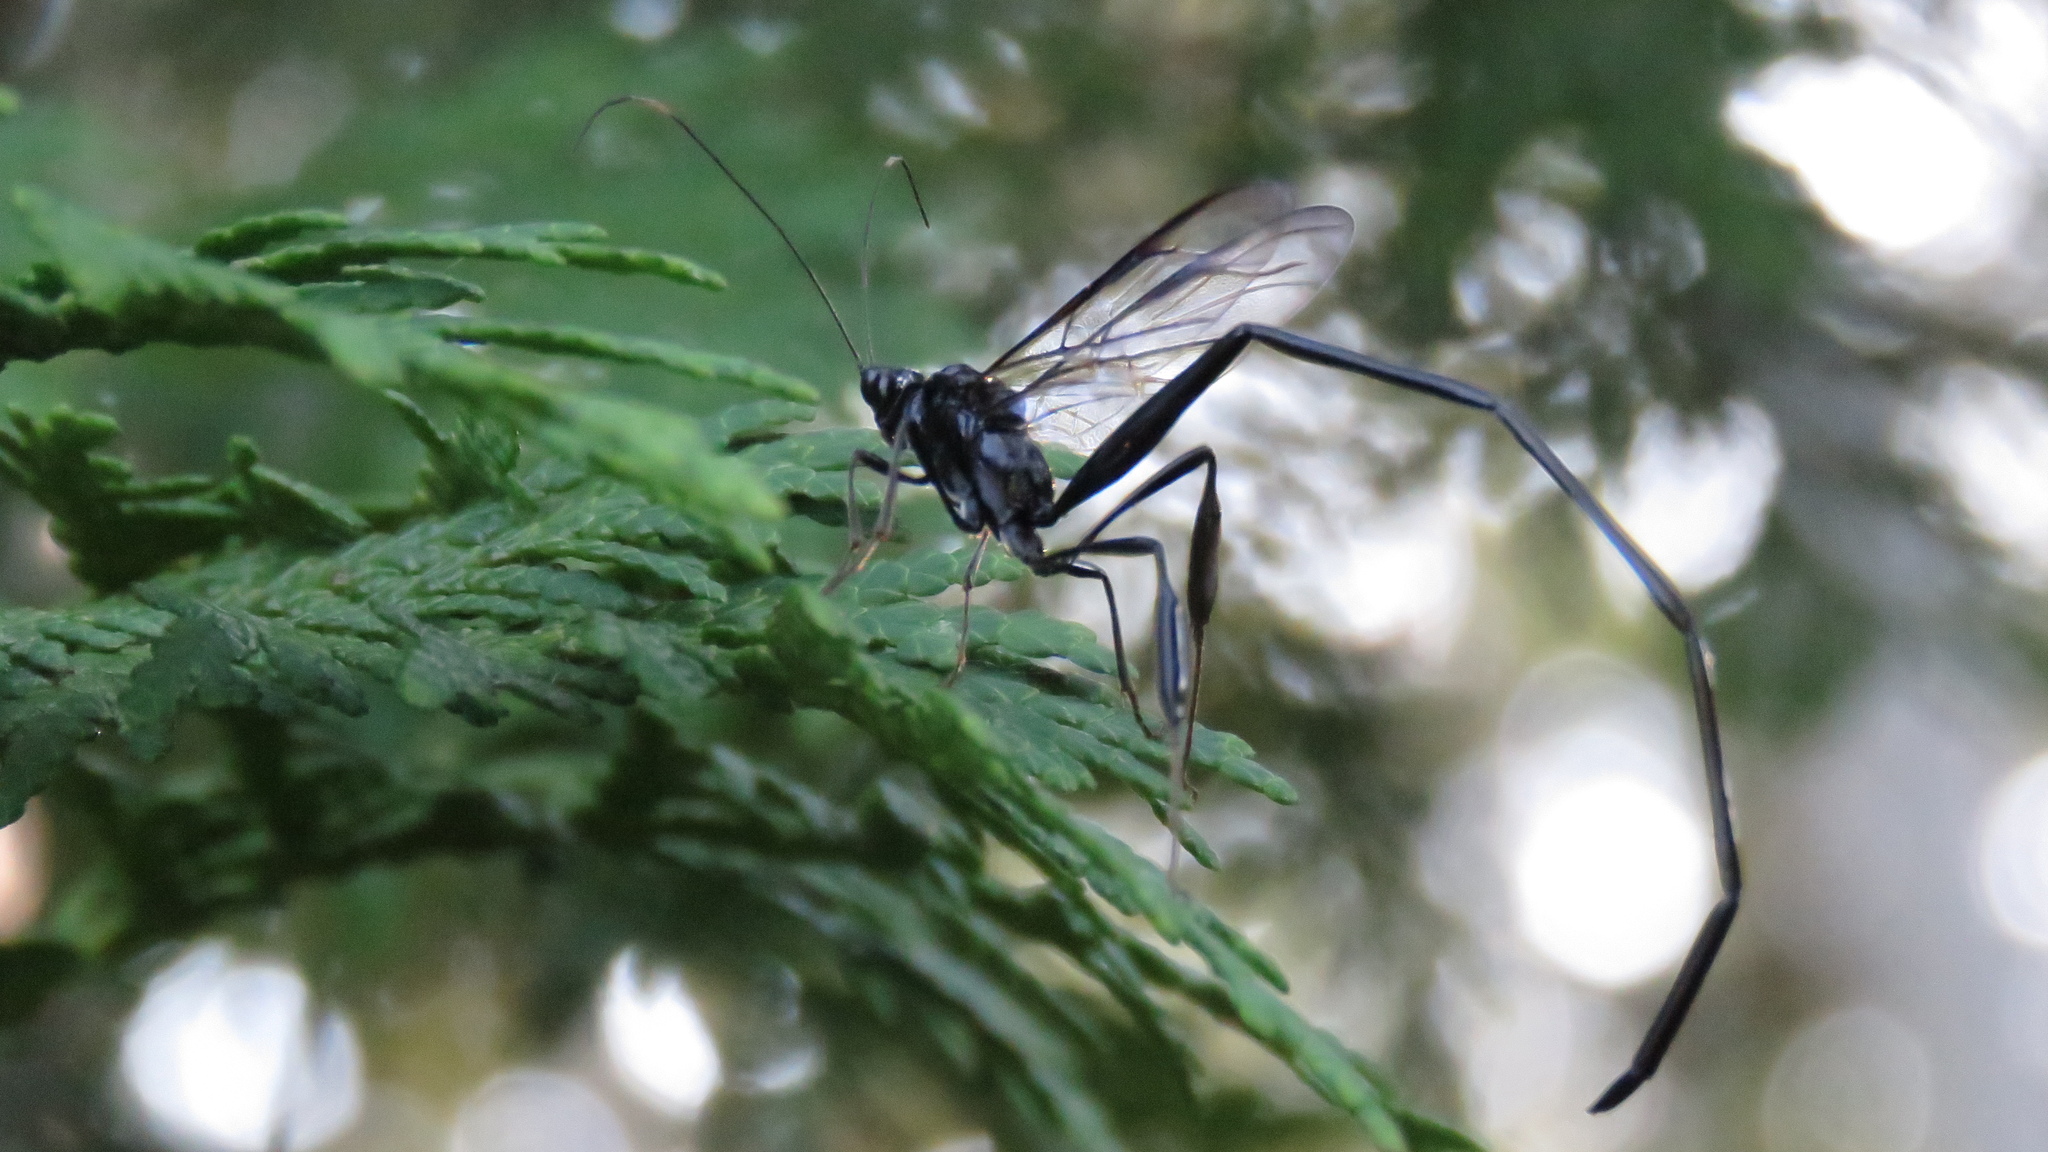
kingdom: Animalia
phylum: Arthropoda
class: Insecta
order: Hymenoptera
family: Pelecinidae
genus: Pelecinus
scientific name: Pelecinus polyturator
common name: American pelecinid wasp
